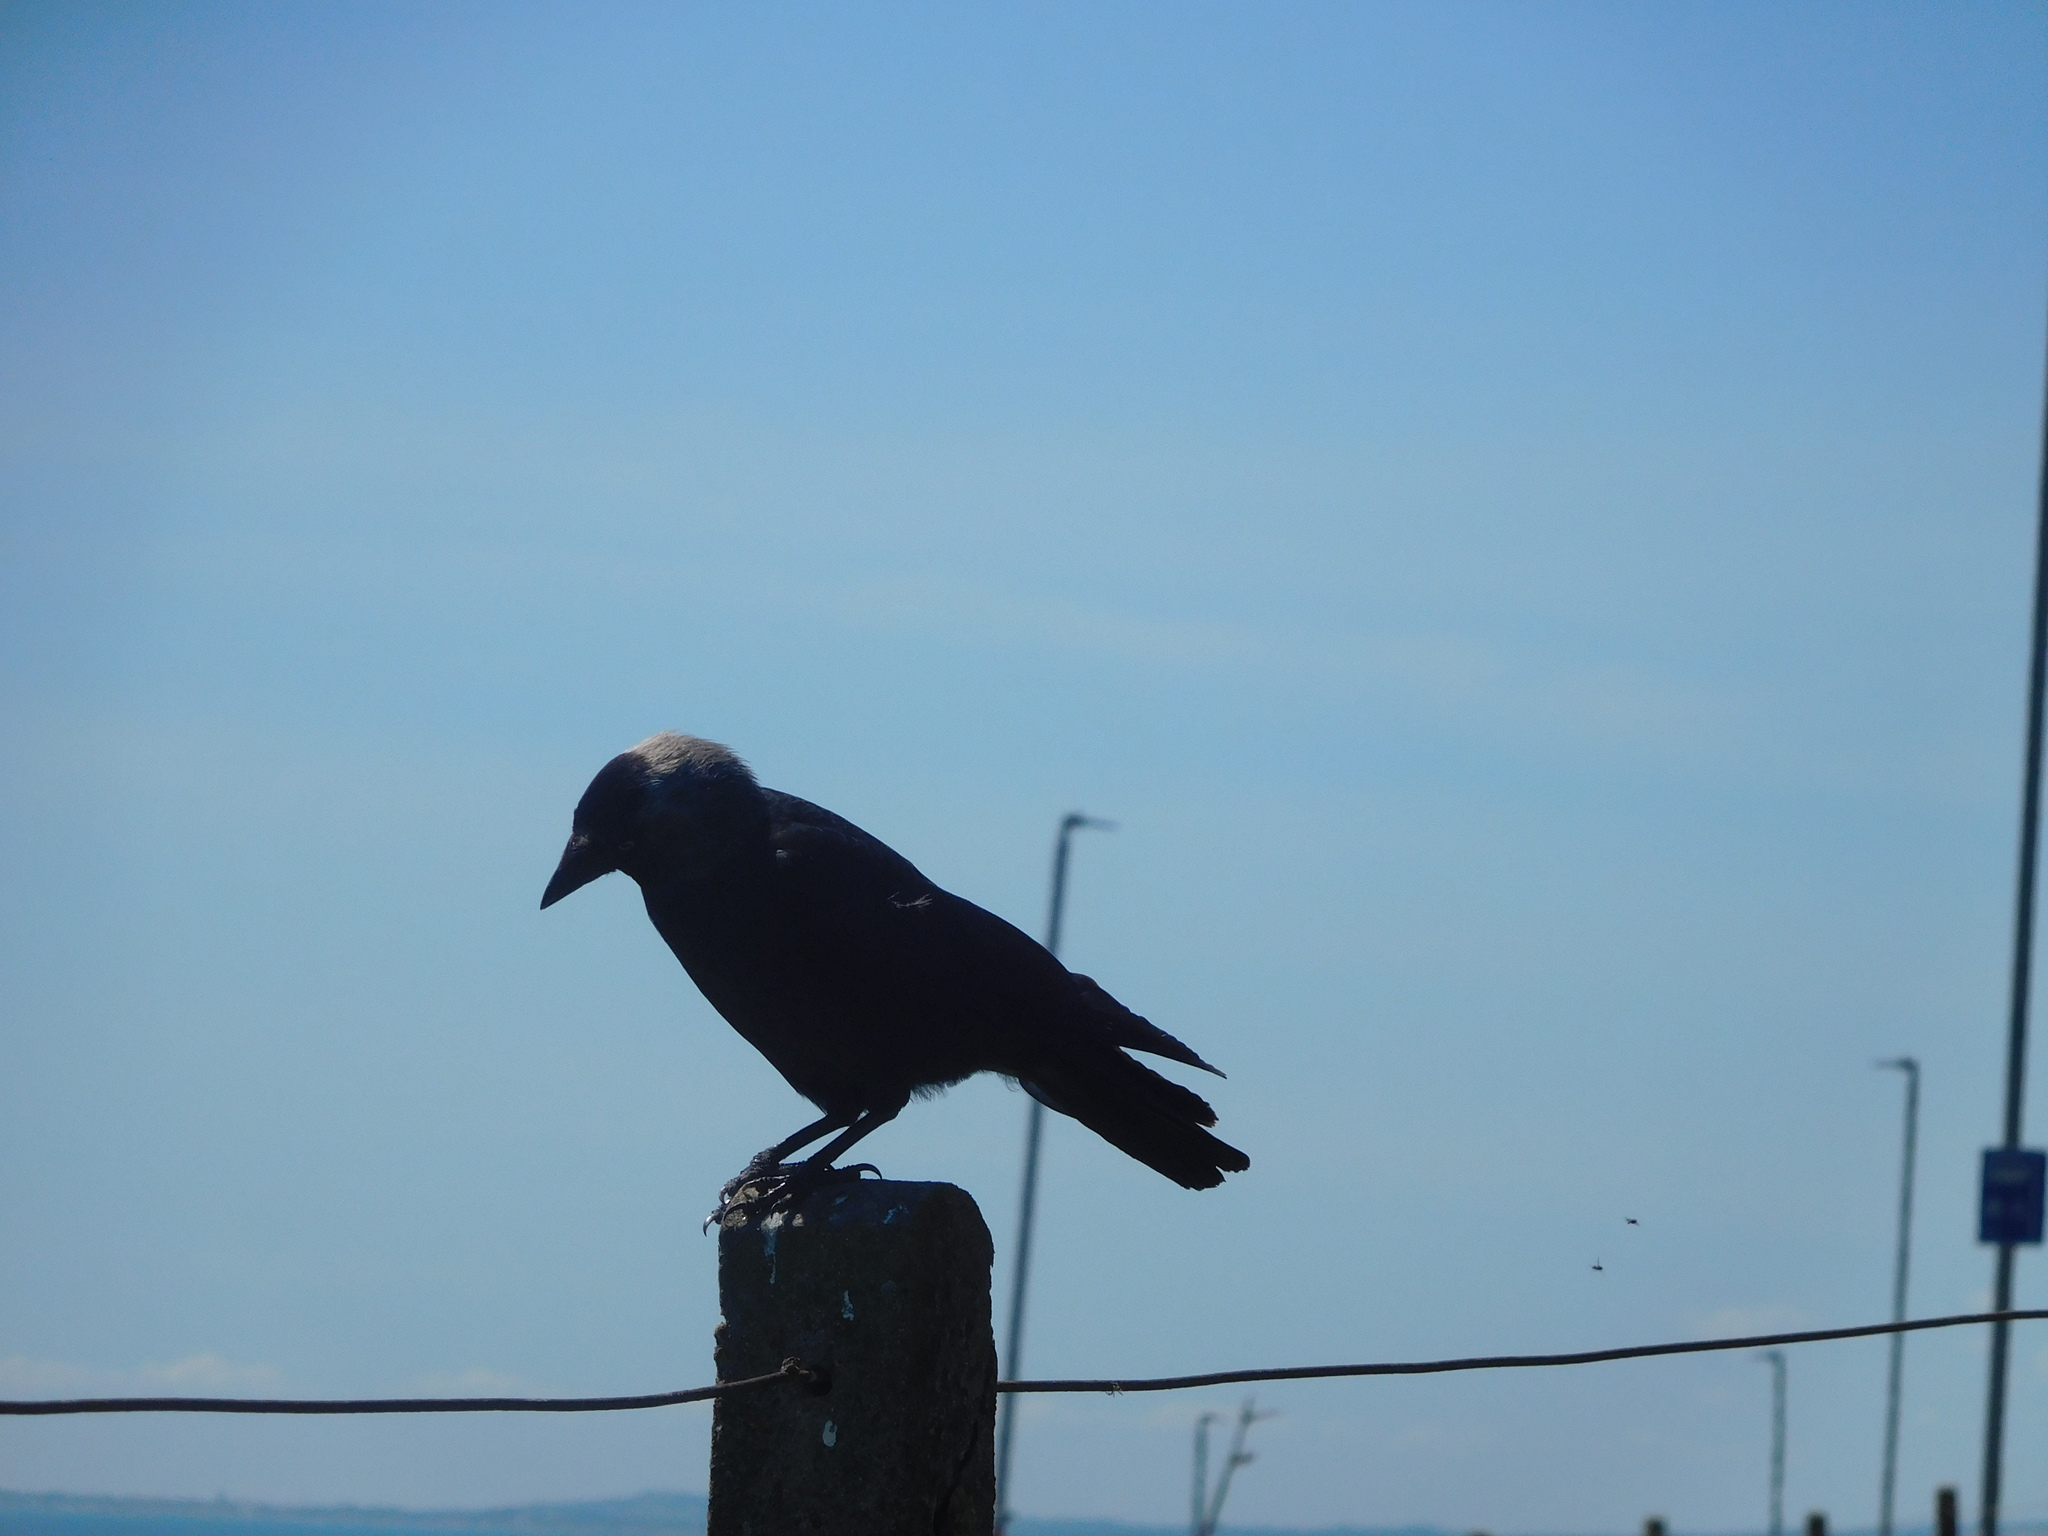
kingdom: Animalia
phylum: Chordata
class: Aves
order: Passeriformes
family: Corvidae
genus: Coloeus
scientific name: Coloeus monedula
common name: Western jackdaw
